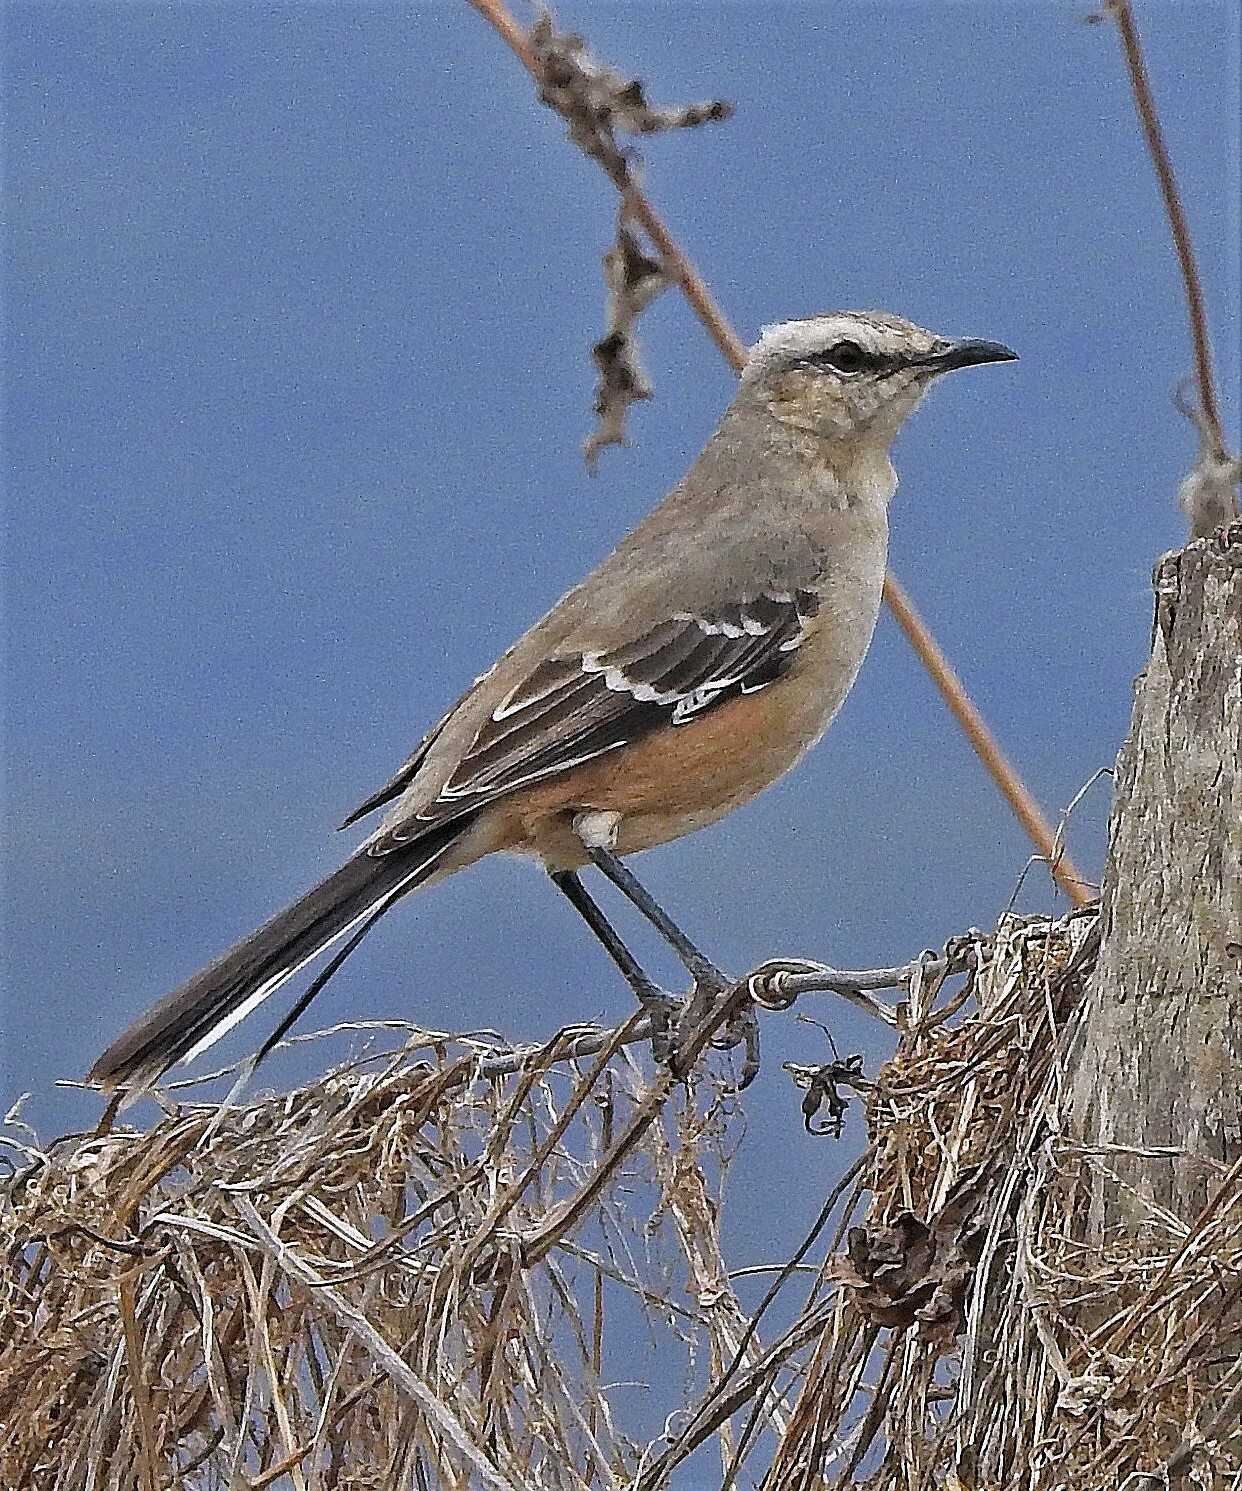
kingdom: Animalia
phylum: Chordata
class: Aves
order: Passeriformes
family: Mimidae
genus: Mimus
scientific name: Mimus patagonicus
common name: Patagonian mockingbird
